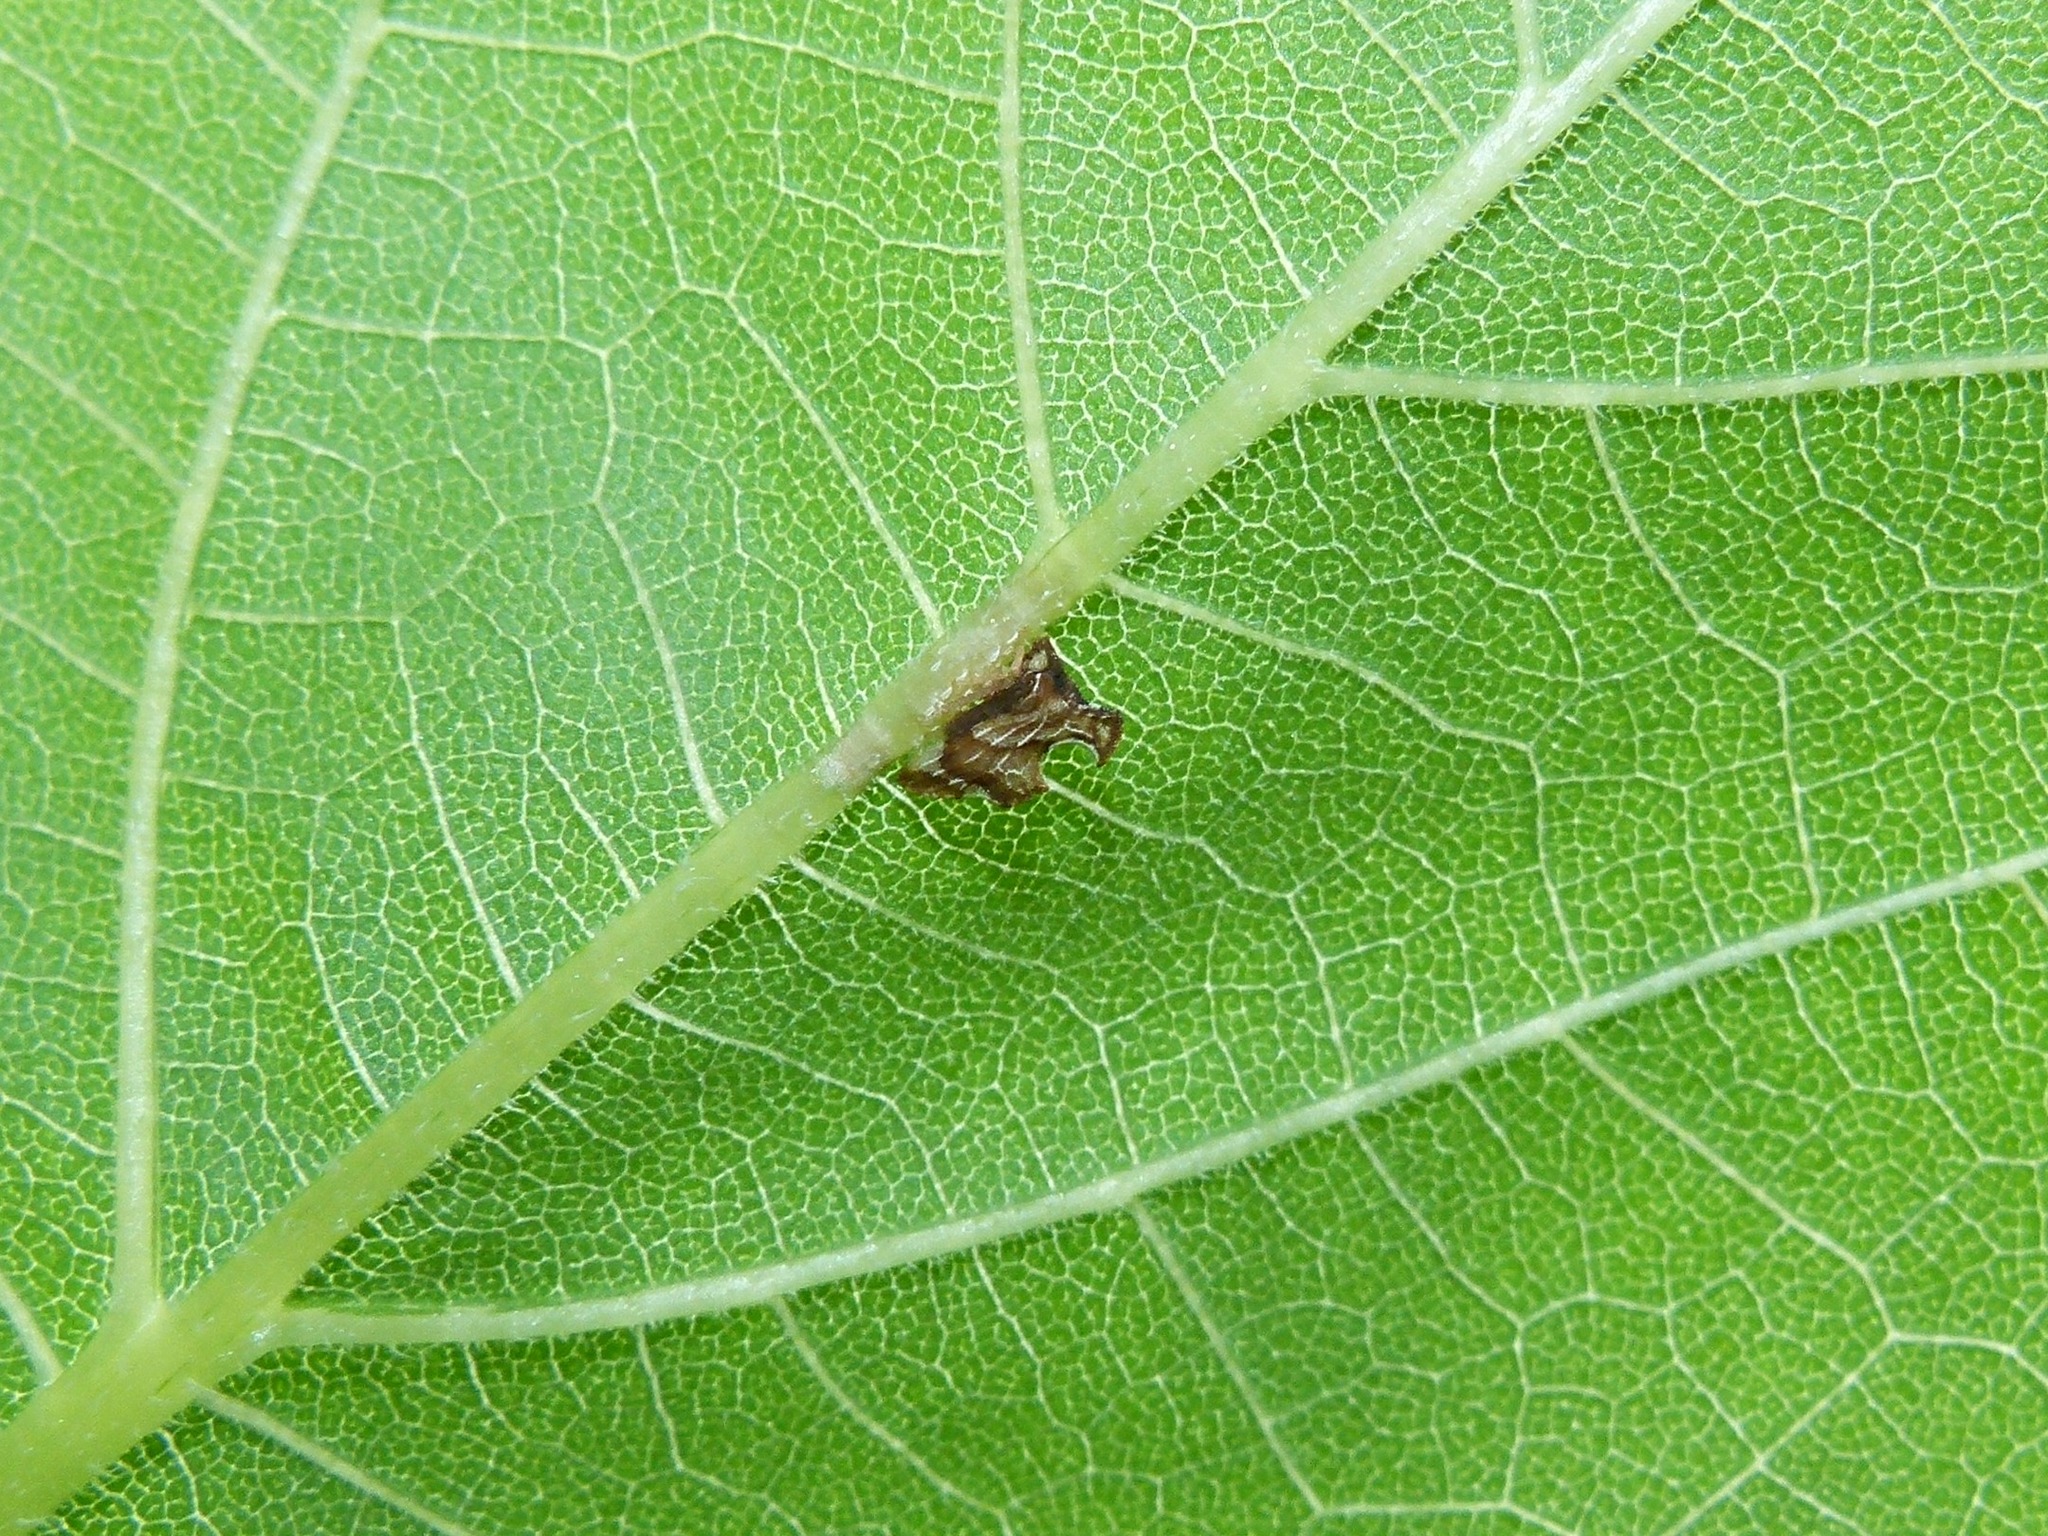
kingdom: Animalia
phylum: Arthropoda
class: Insecta
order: Hemiptera
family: Membracidae
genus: Entylia
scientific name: Entylia carinata
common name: Keeled treehopper
